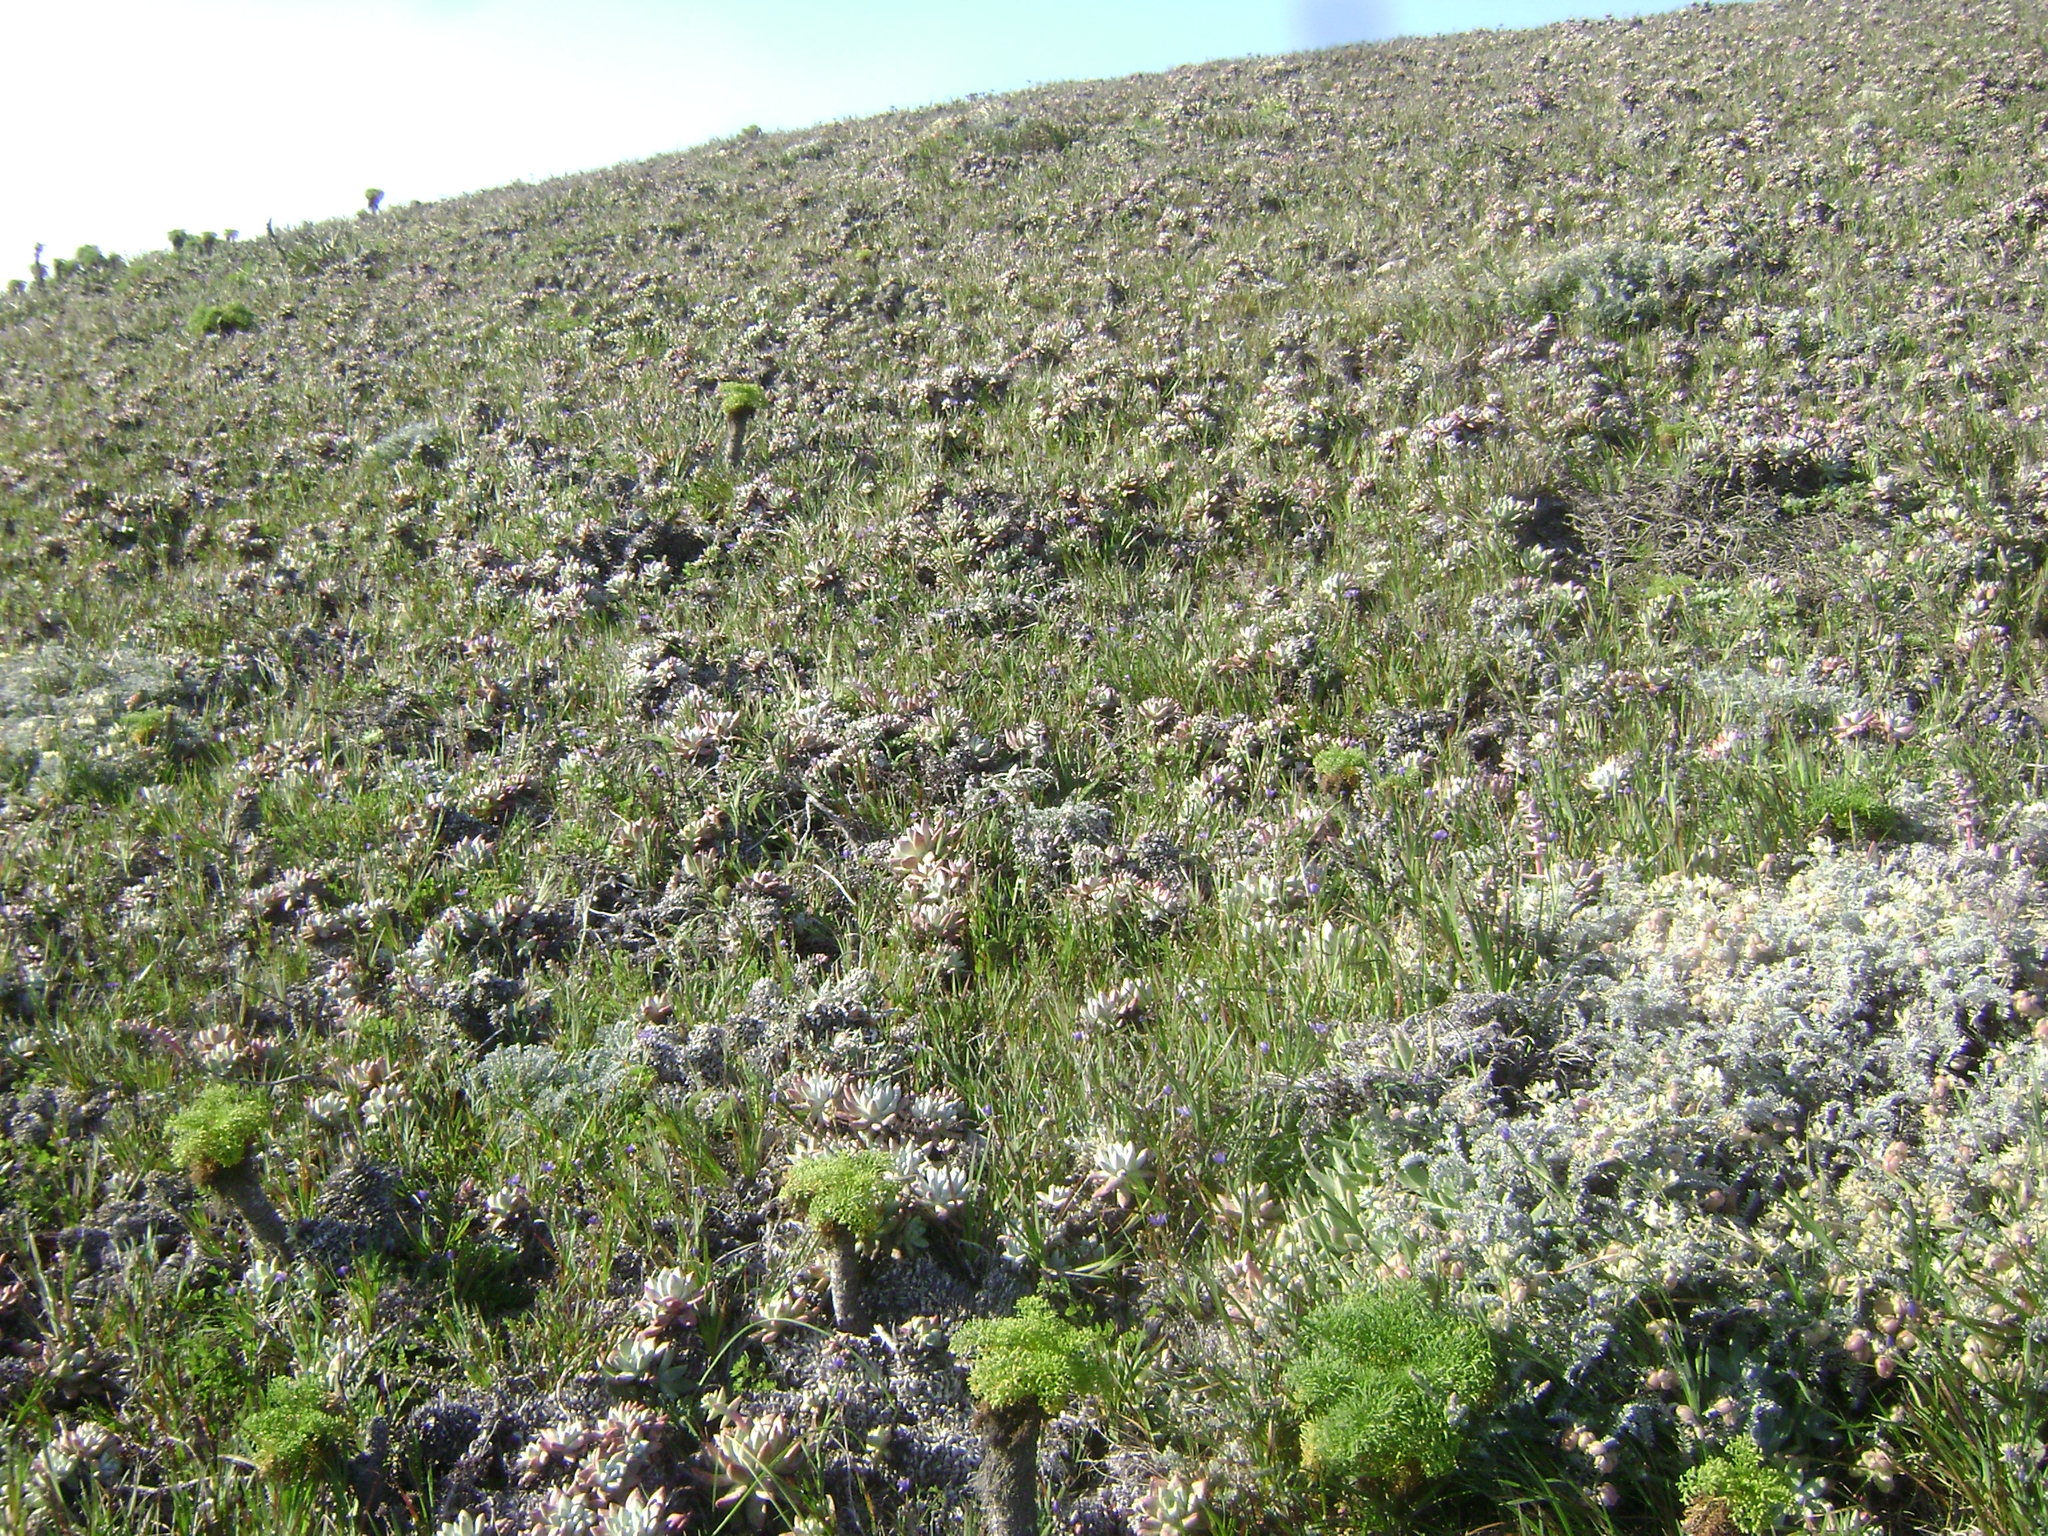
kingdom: Plantae
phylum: Tracheophyta
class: Magnoliopsida
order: Saxifragales
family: Crassulaceae
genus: Dudleya
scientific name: Dudleya greenei
